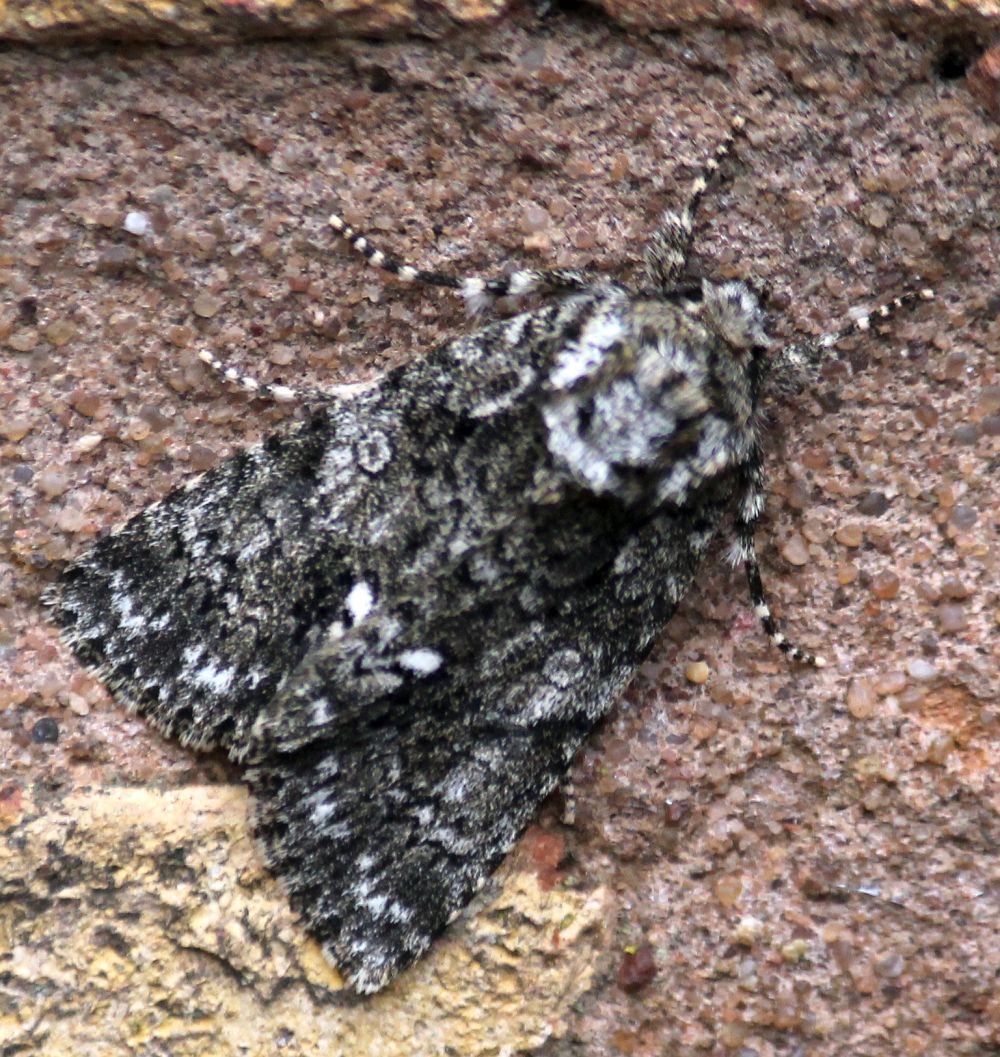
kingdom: Animalia
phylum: Arthropoda
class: Insecta
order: Lepidoptera
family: Noctuidae
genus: Acronicta
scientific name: Acronicta rumicis
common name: Knot grass
